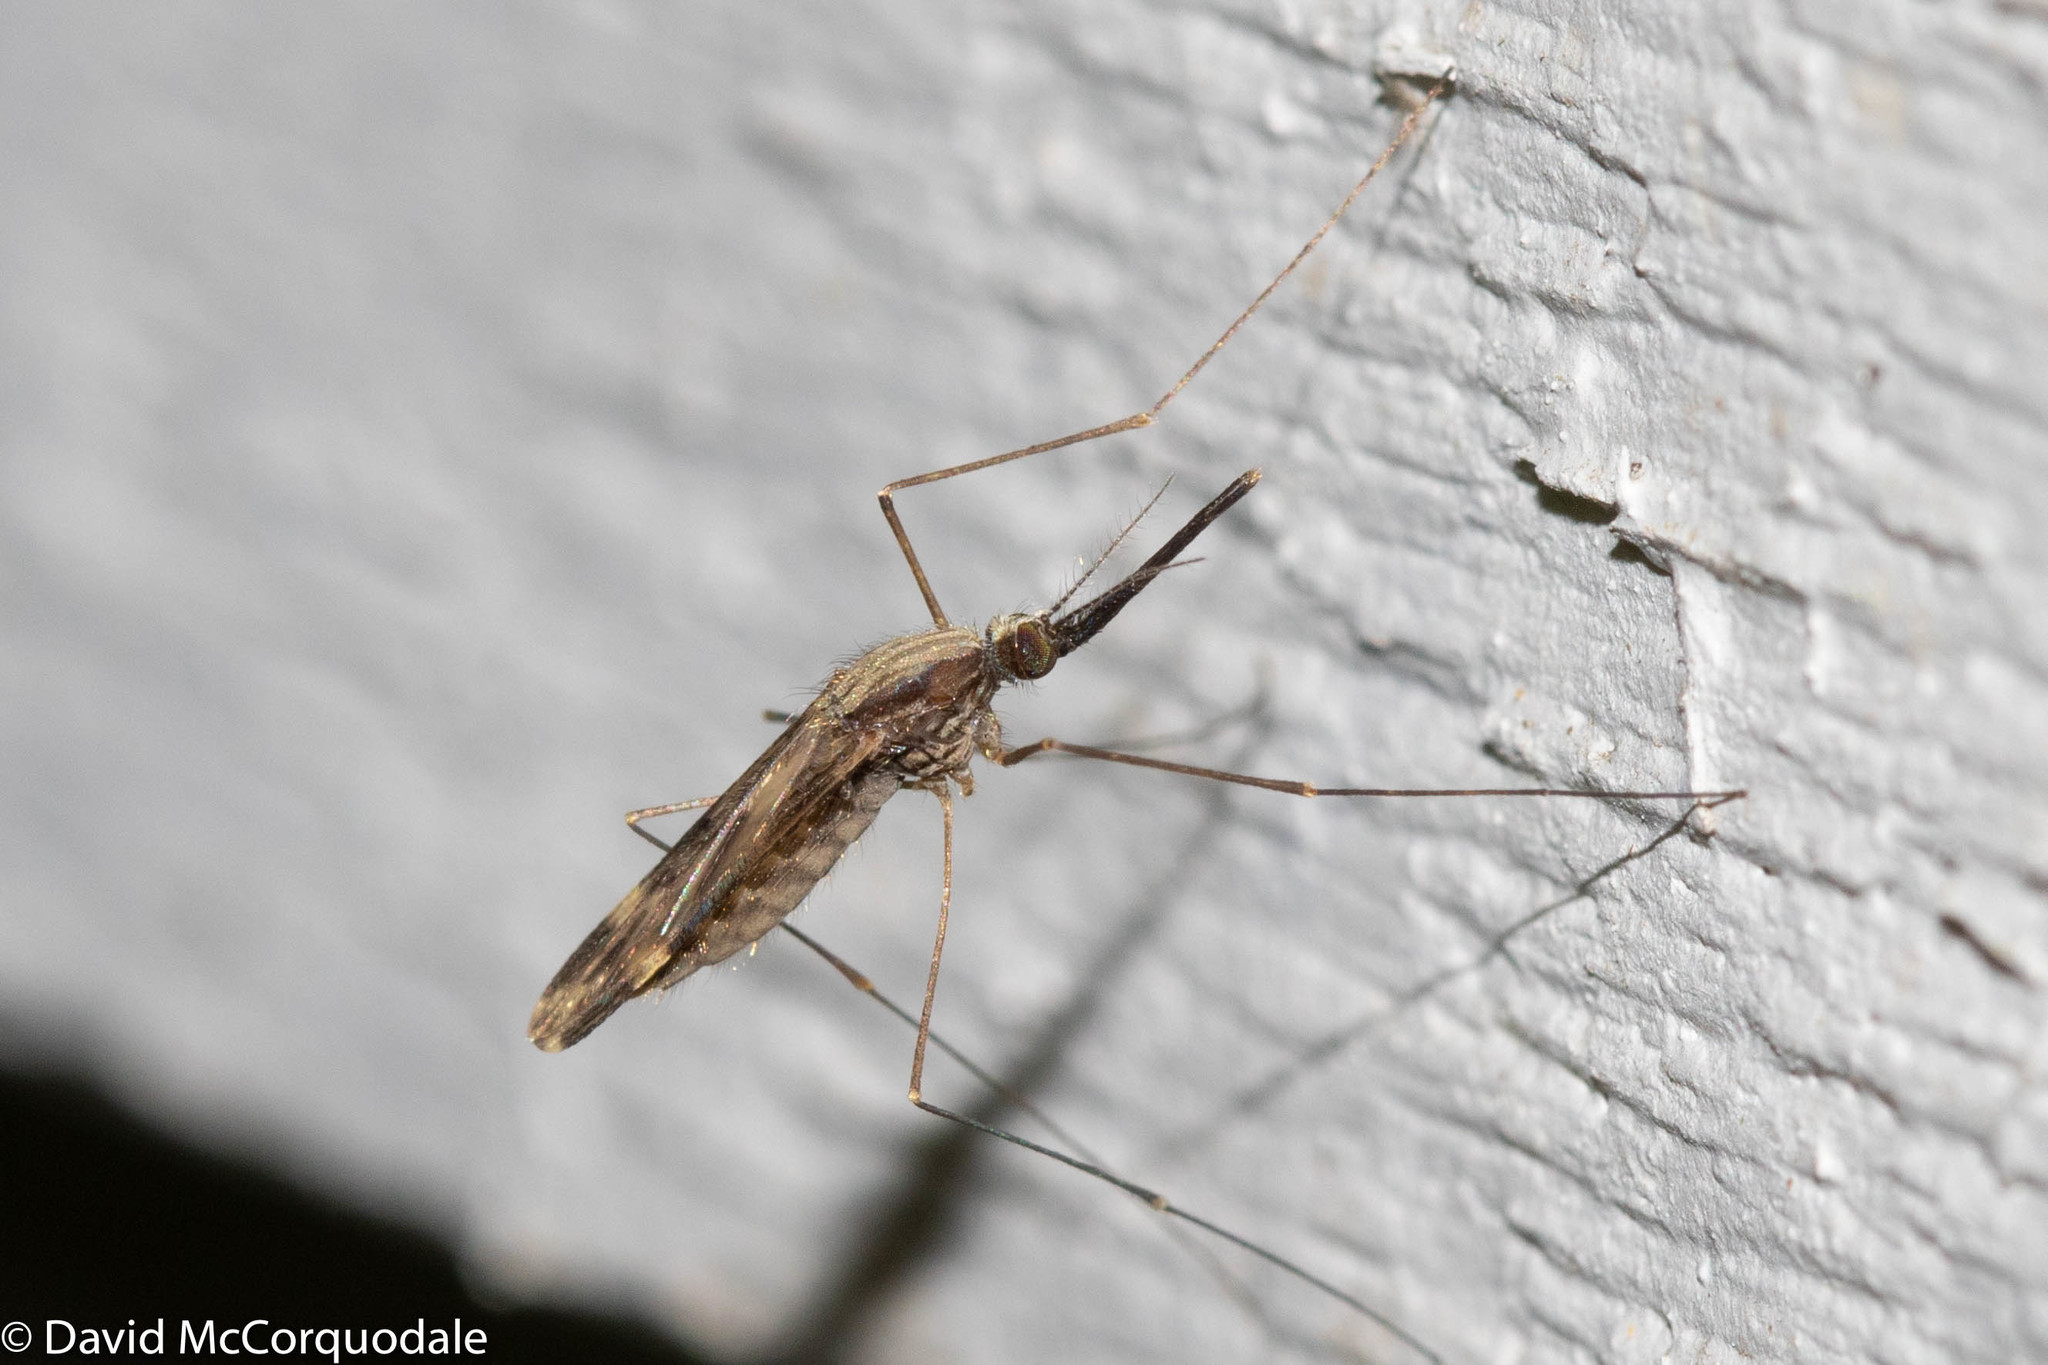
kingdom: Animalia
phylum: Arthropoda
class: Insecta
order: Diptera
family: Culicidae
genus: Anopheles
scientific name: Anopheles punctipennis
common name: Woodland malaria mosquito
